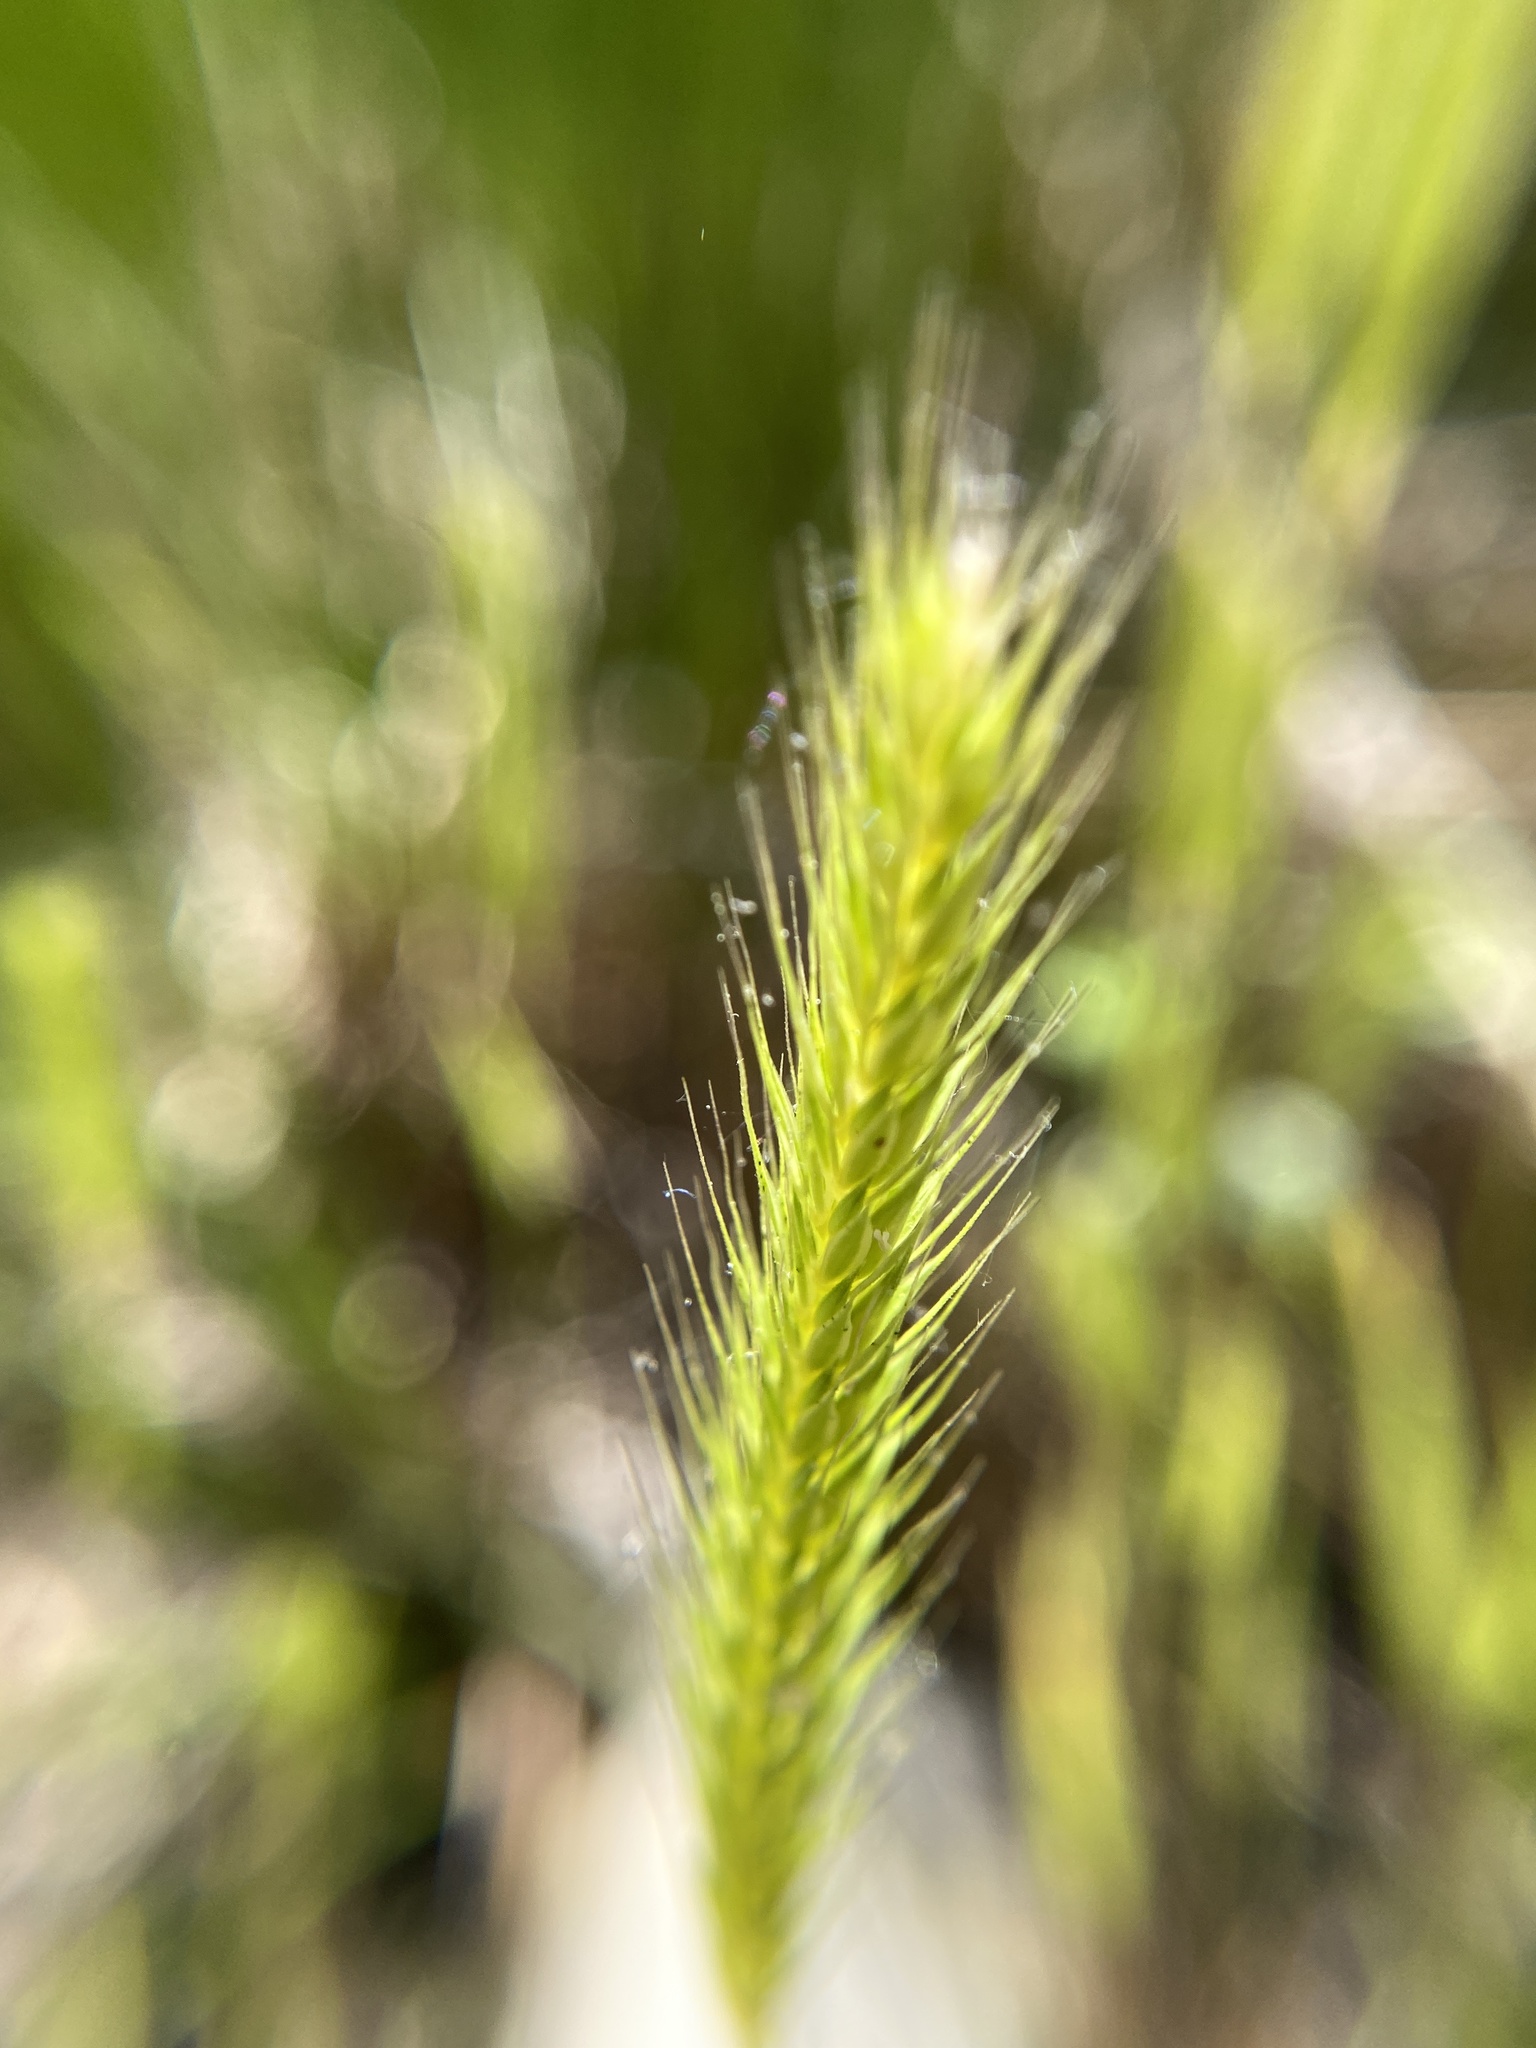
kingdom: Plantae
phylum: Tracheophyta
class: Liliopsida
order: Poales
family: Poaceae
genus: Hordeum
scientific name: Hordeum pusillum
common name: Little barley
